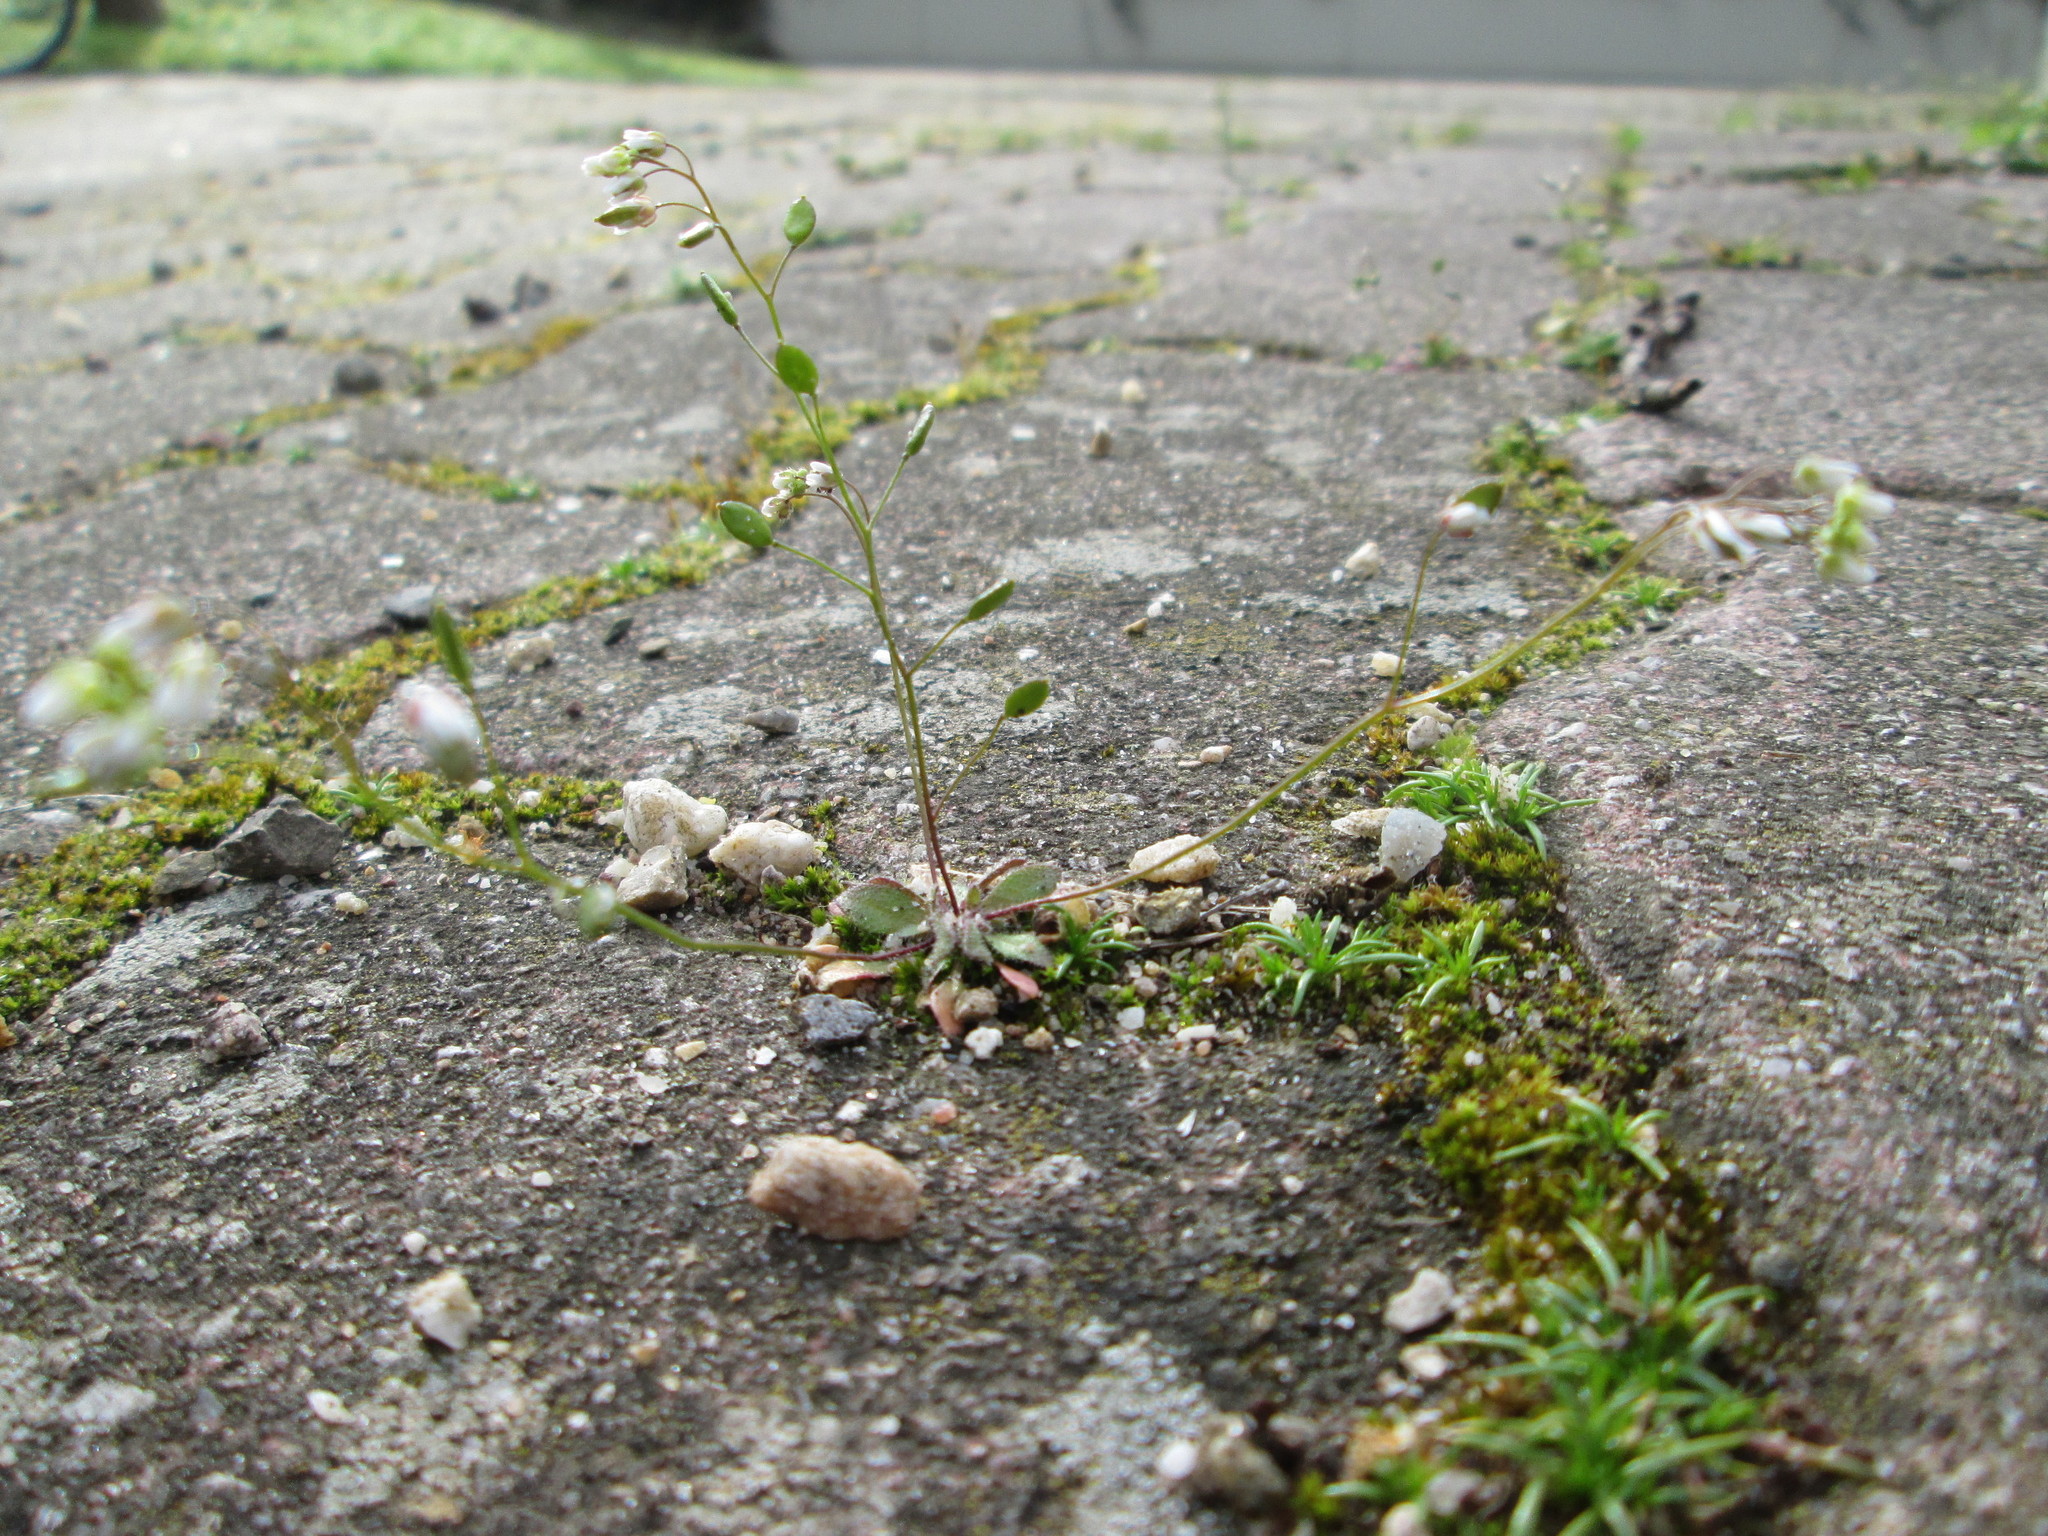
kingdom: Plantae
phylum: Tracheophyta
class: Magnoliopsida
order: Brassicales
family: Brassicaceae
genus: Draba
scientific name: Draba verna
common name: Spring draba
